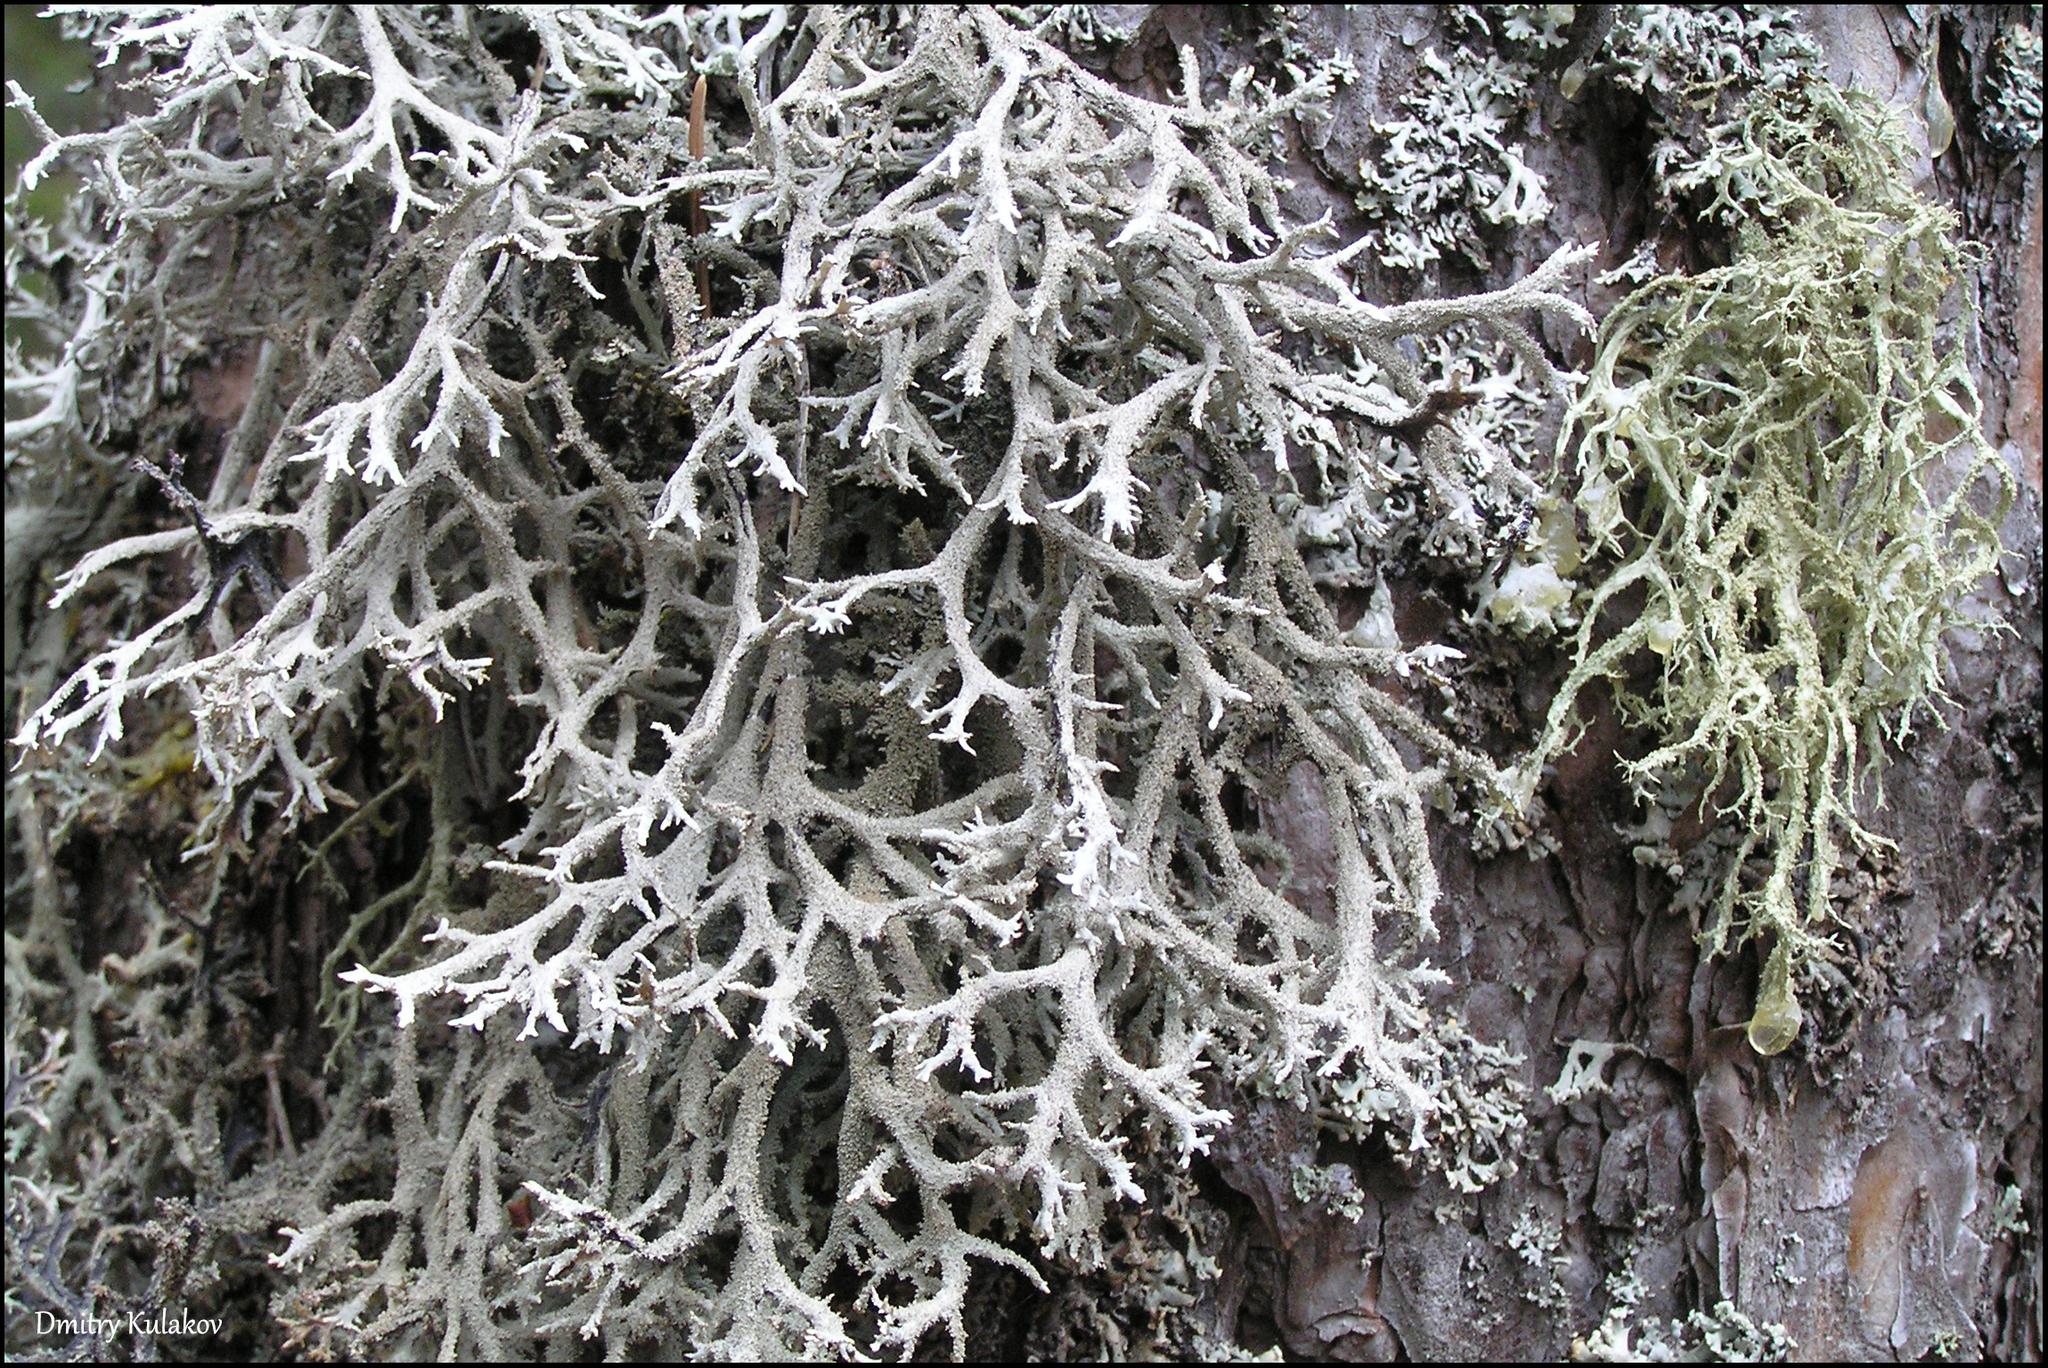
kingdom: Fungi
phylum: Ascomycota
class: Lecanoromycetes
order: Lecanorales
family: Parmeliaceae
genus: Pseudevernia
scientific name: Pseudevernia furfuracea
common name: Tree moss
